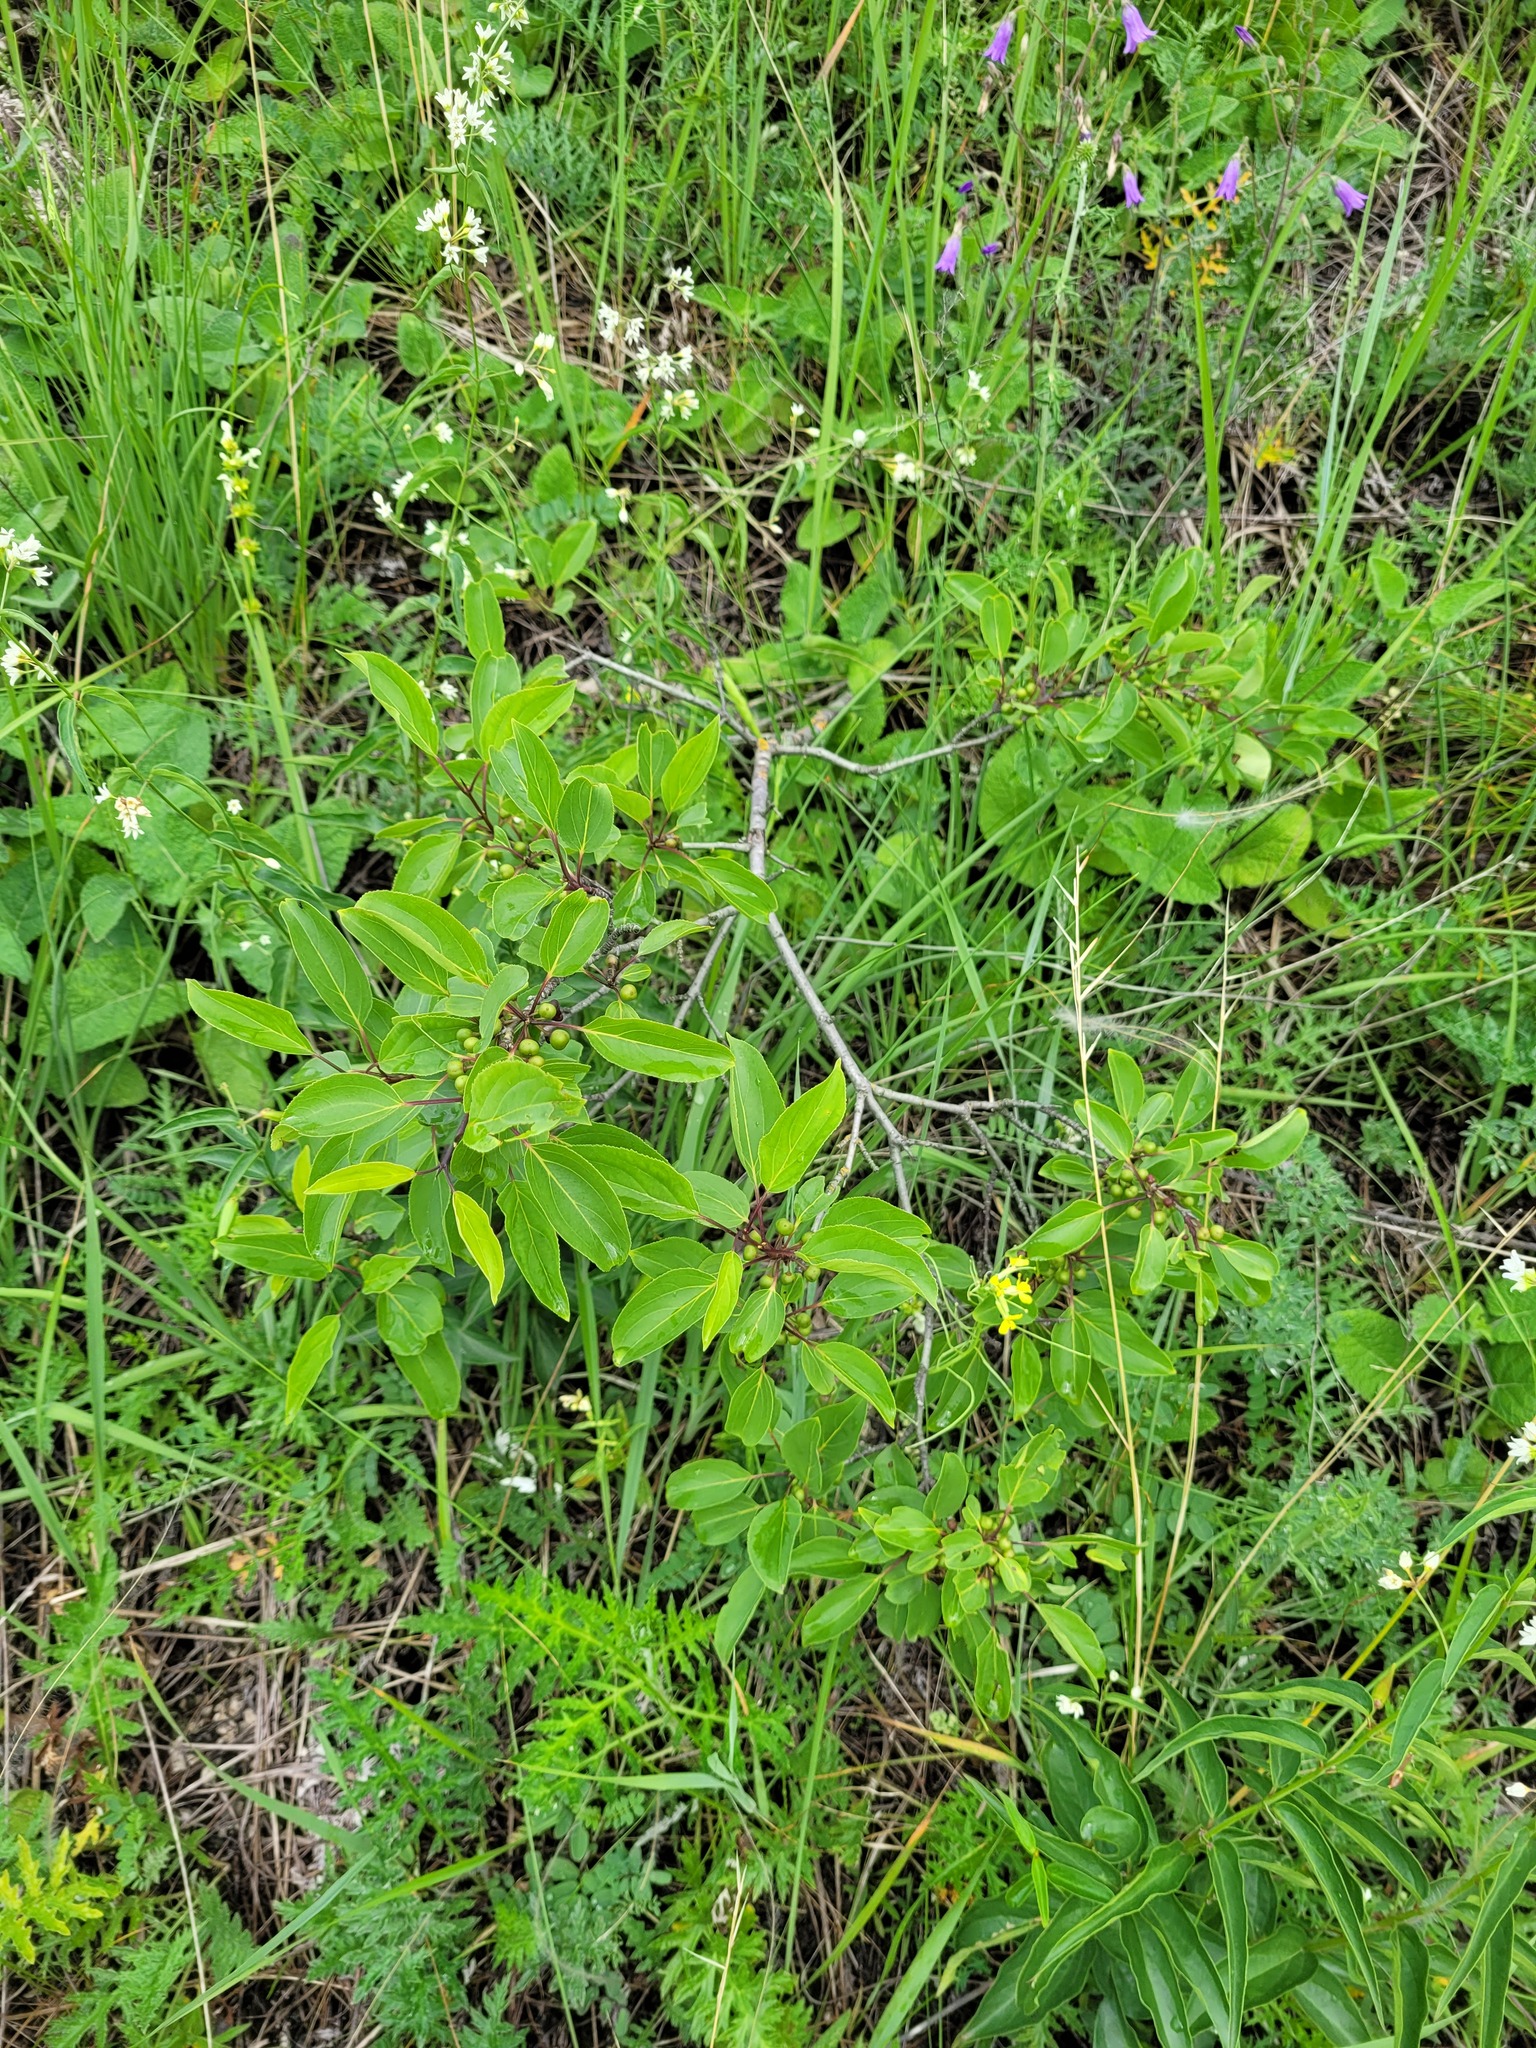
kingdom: Plantae
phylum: Tracheophyta
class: Magnoliopsida
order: Rosales
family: Rhamnaceae
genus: Rhamnus
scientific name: Rhamnus cathartica
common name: Common buckthorn
